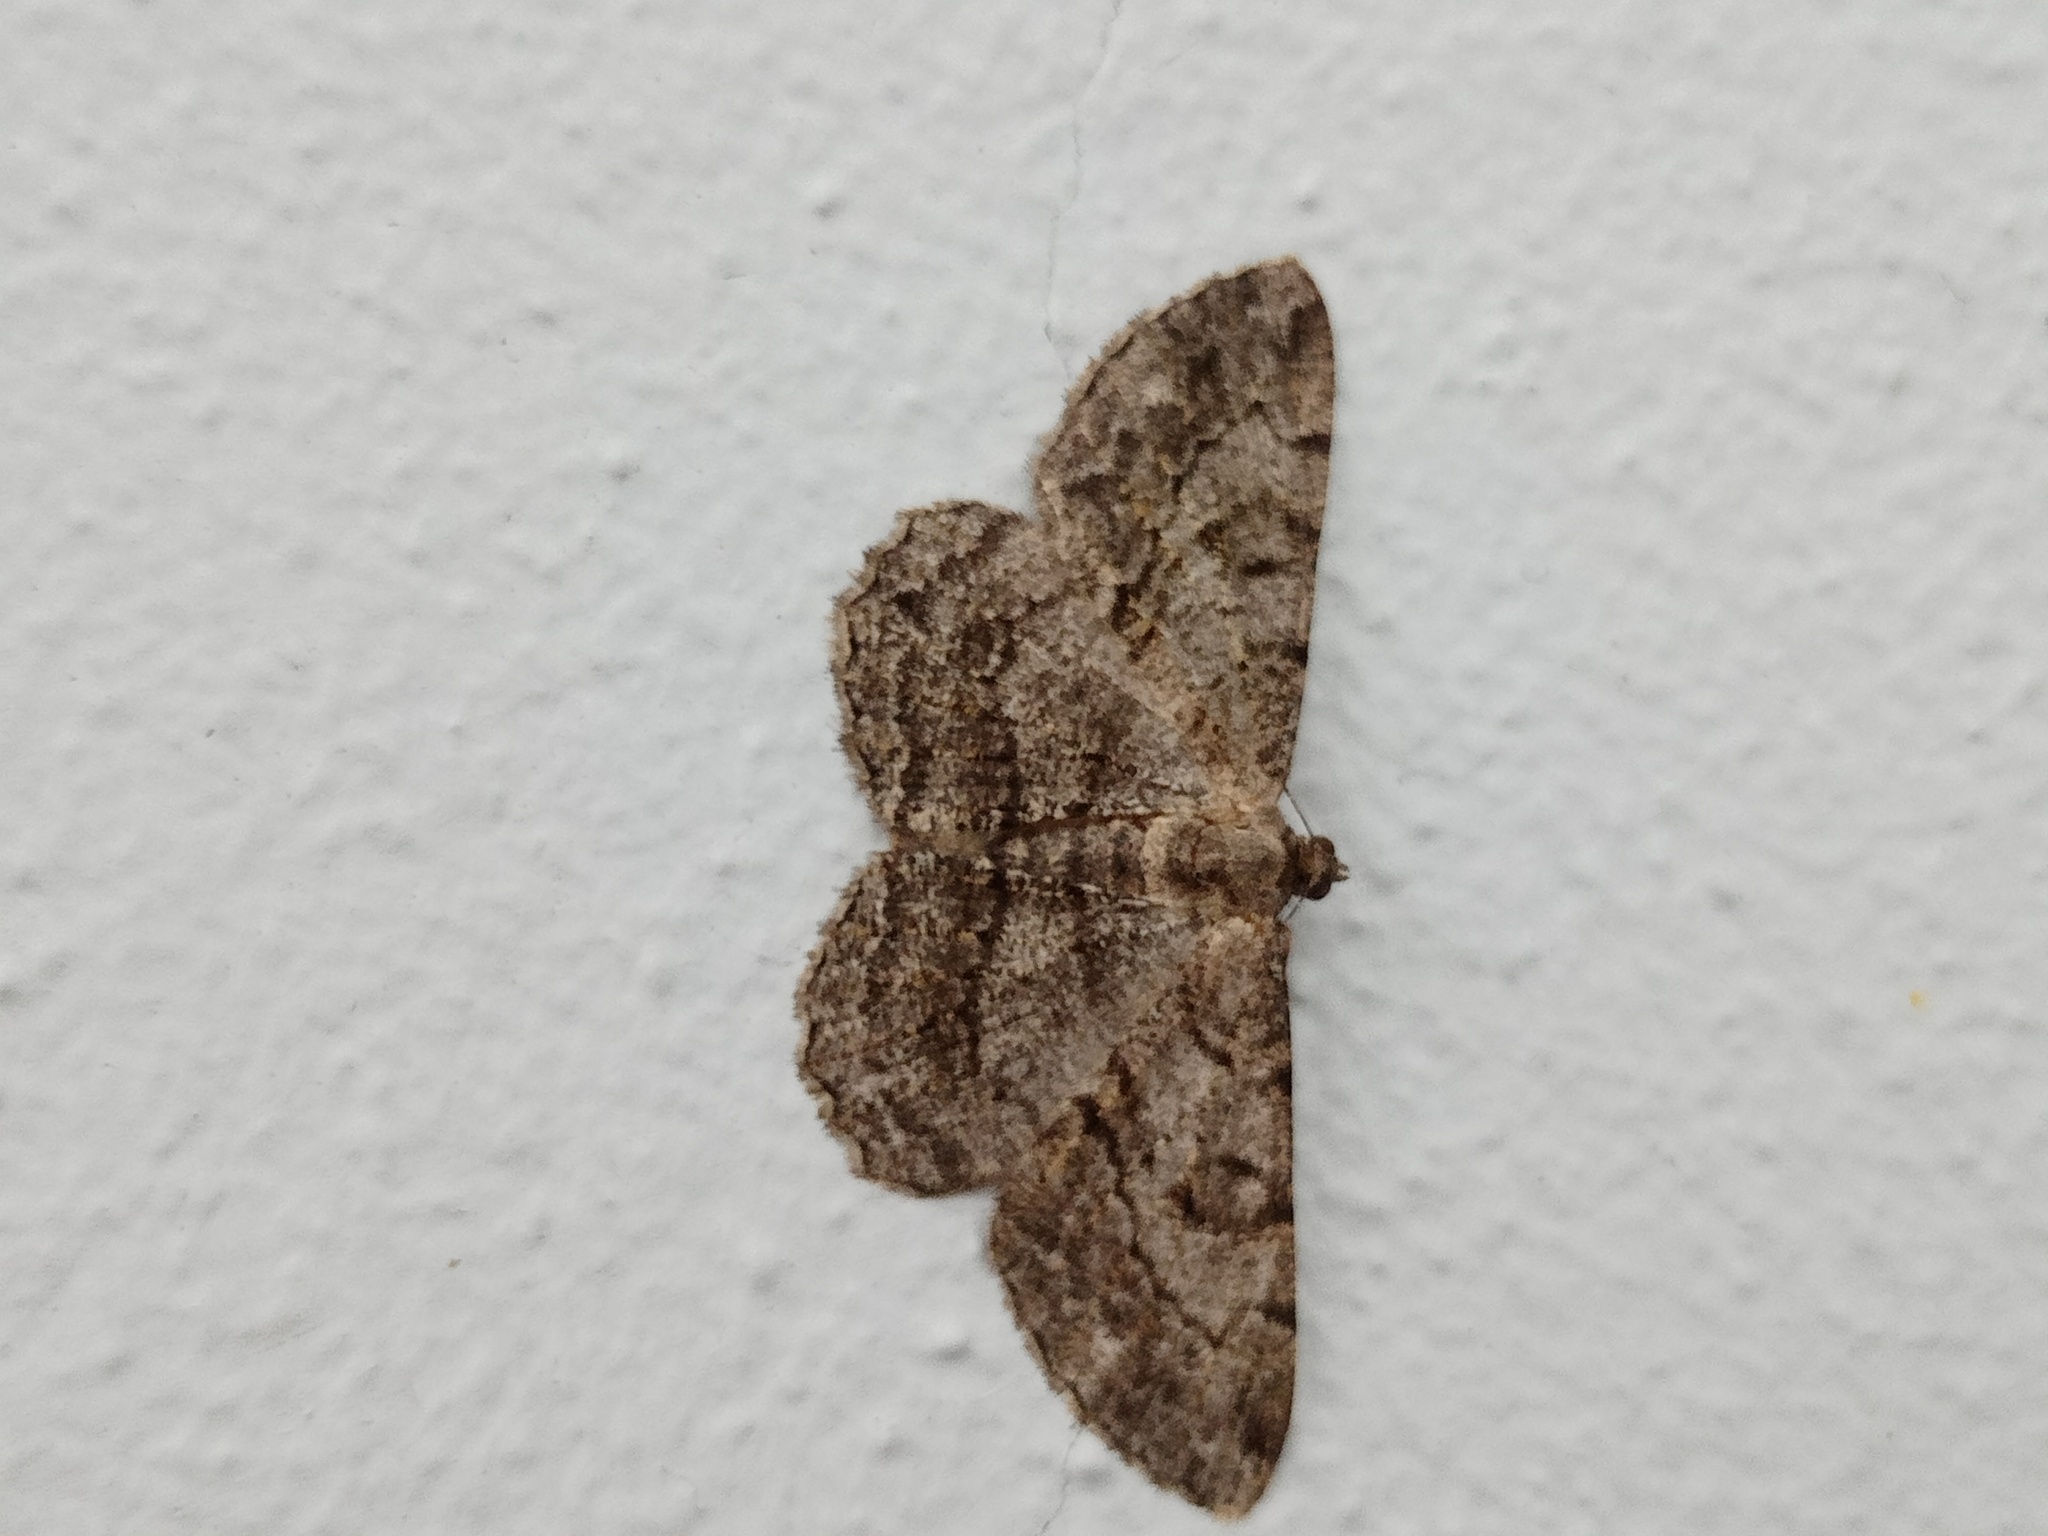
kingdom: Animalia
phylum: Arthropoda
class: Insecta
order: Lepidoptera
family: Geometridae
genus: Peribatodes
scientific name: Peribatodes rhomboidaria
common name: Willow beauty
